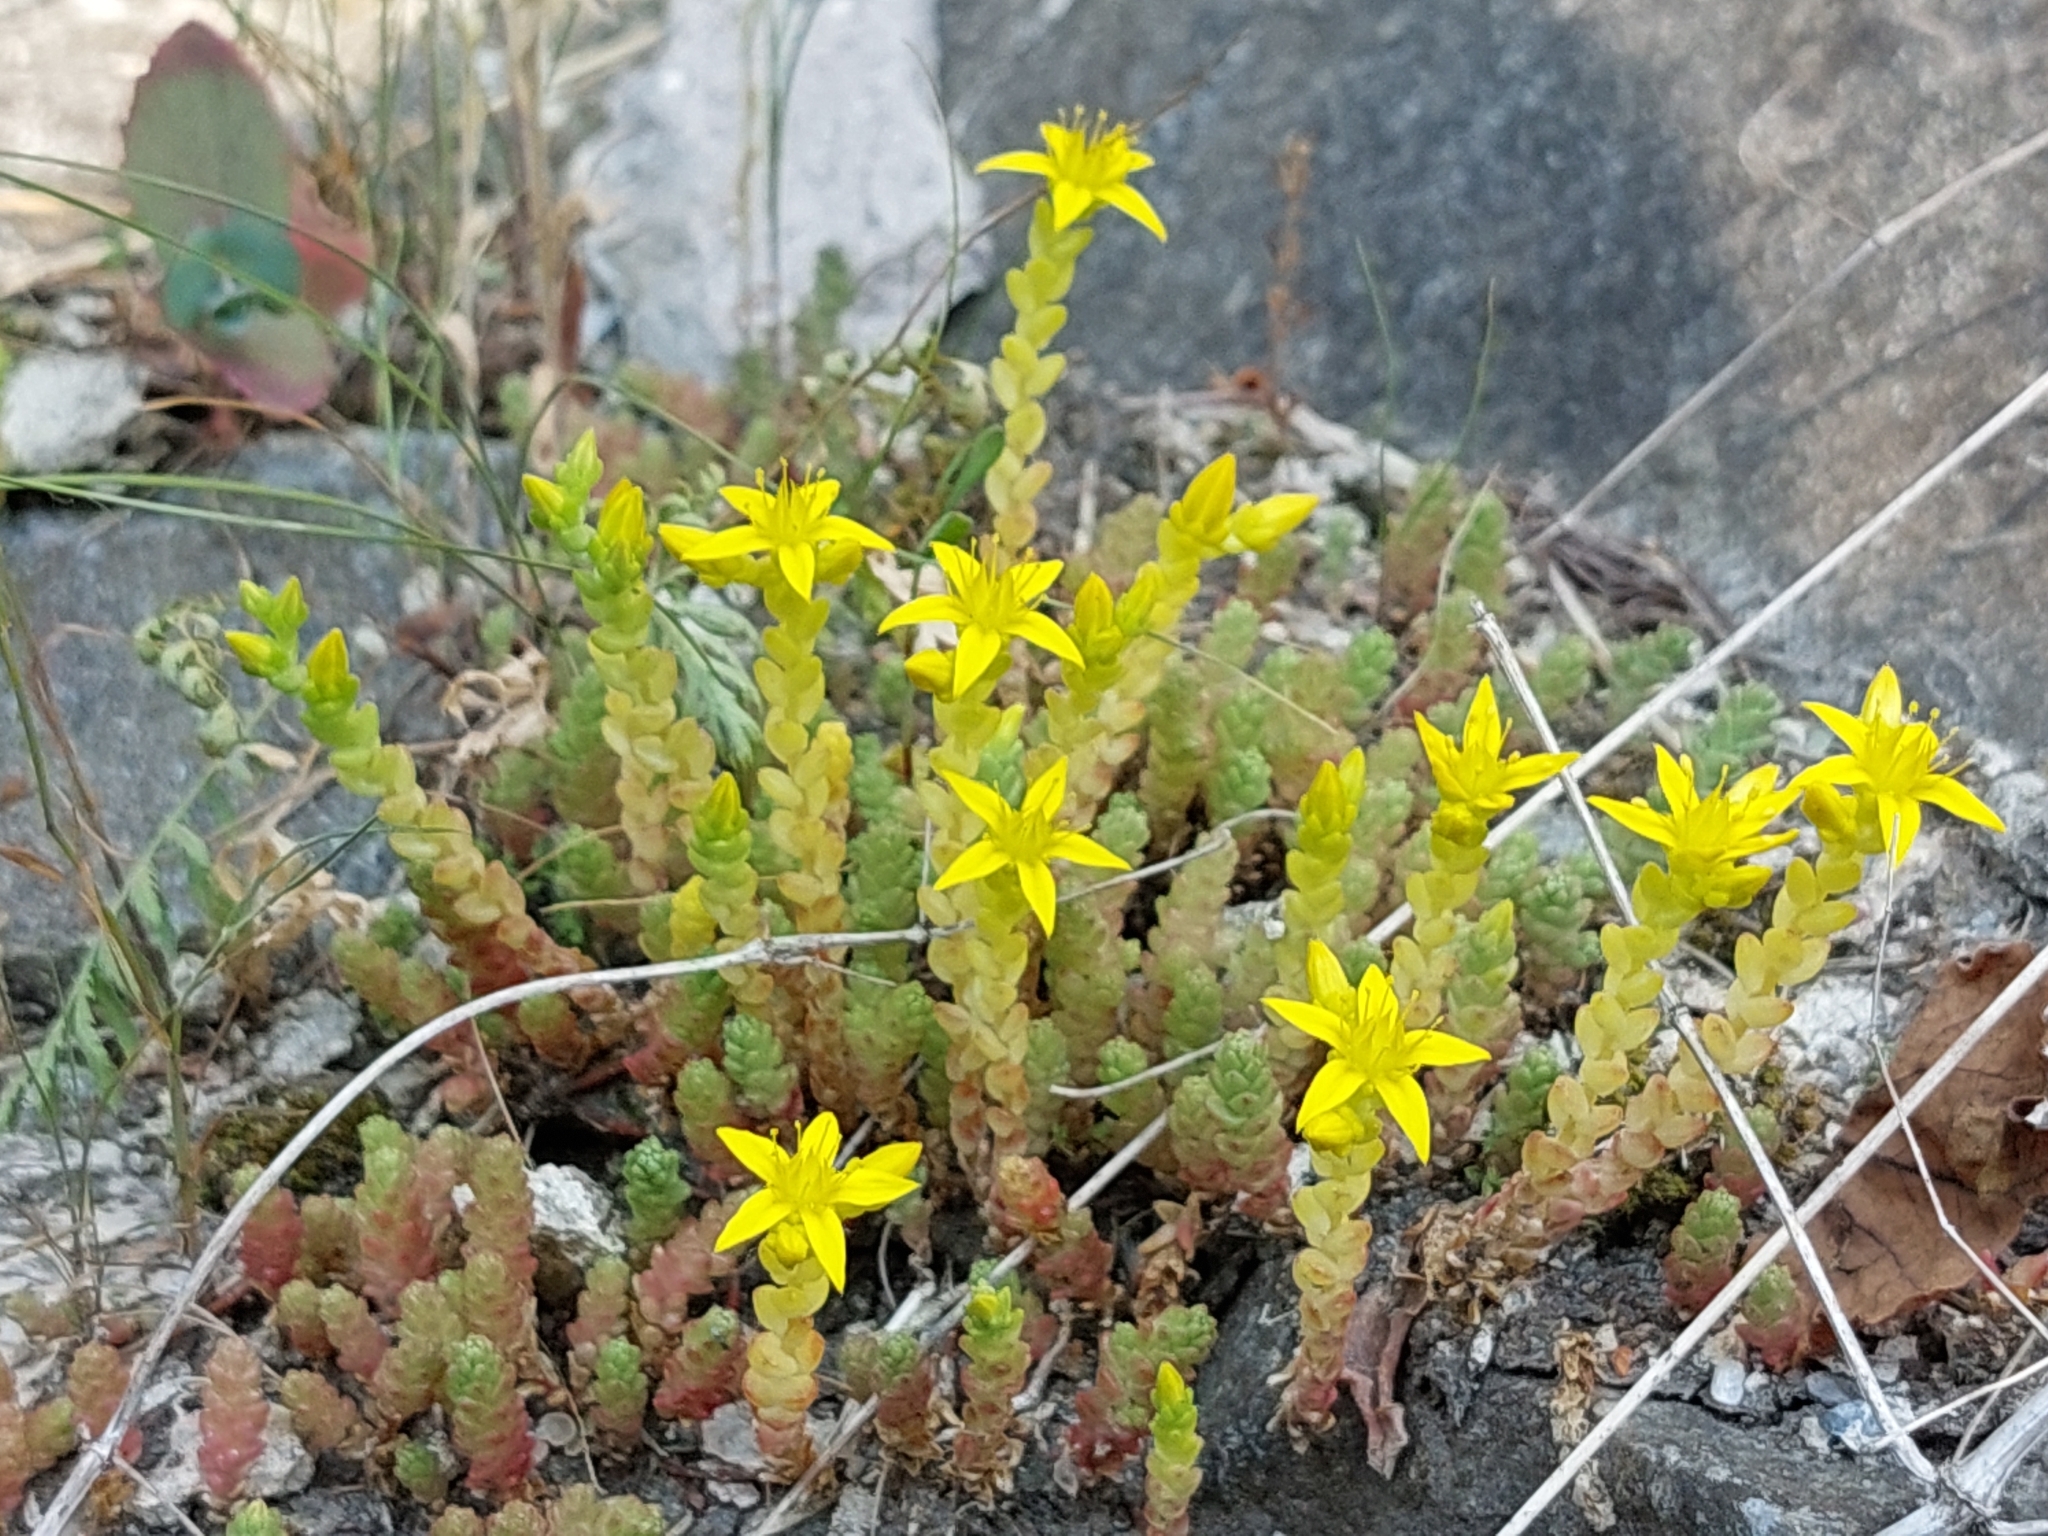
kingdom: Plantae
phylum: Tracheophyta
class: Magnoliopsida
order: Saxifragales
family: Crassulaceae
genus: Sedum
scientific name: Sedum acre
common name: Biting stonecrop
